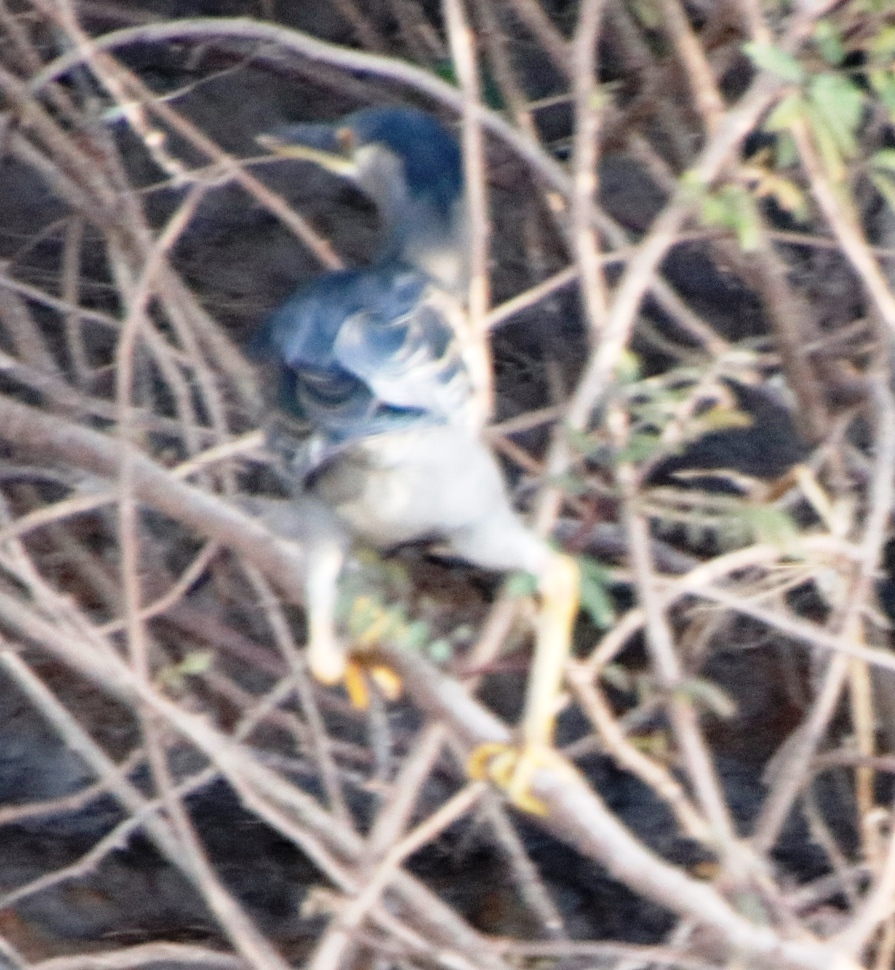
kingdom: Animalia
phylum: Chordata
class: Aves
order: Pelecaniformes
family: Ardeidae
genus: Butorides
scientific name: Butorides striata
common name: Striated heron
